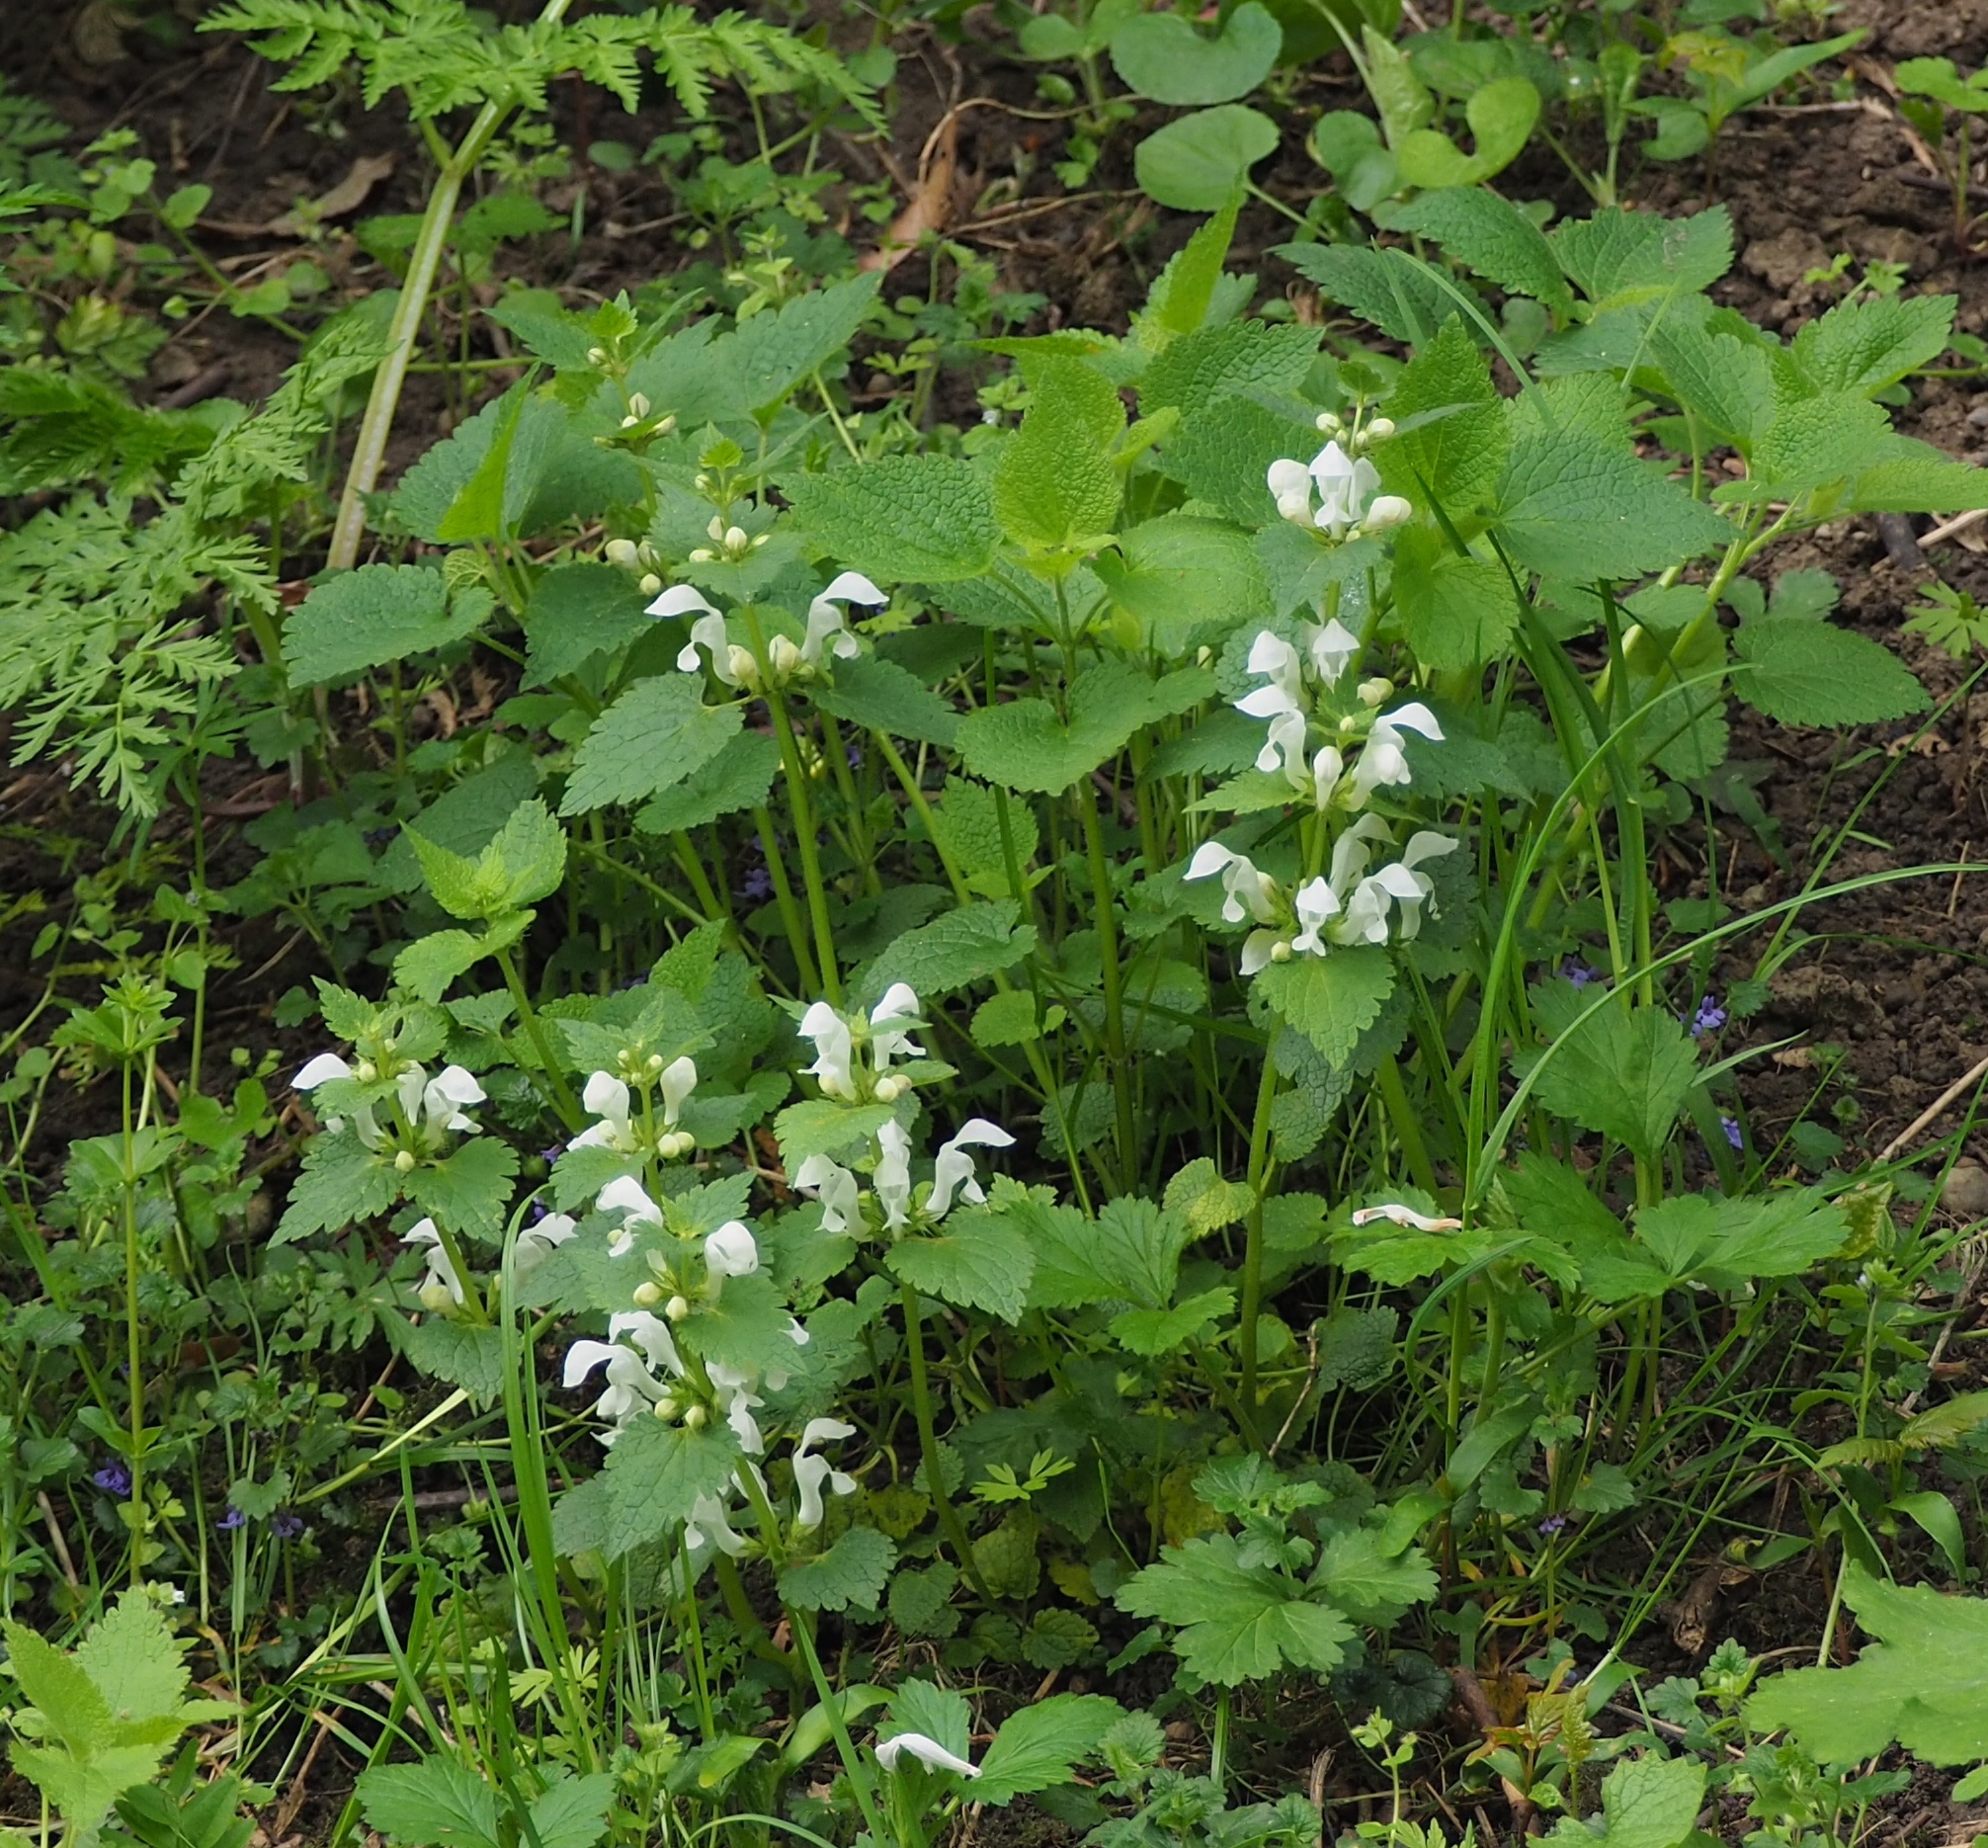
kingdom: Plantae
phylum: Tracheophyta
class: Magnoliopsida
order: Lamiales
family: Lamiaceae
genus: Lamium
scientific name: Lamium maculatum
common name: Spotted dead-nettle
